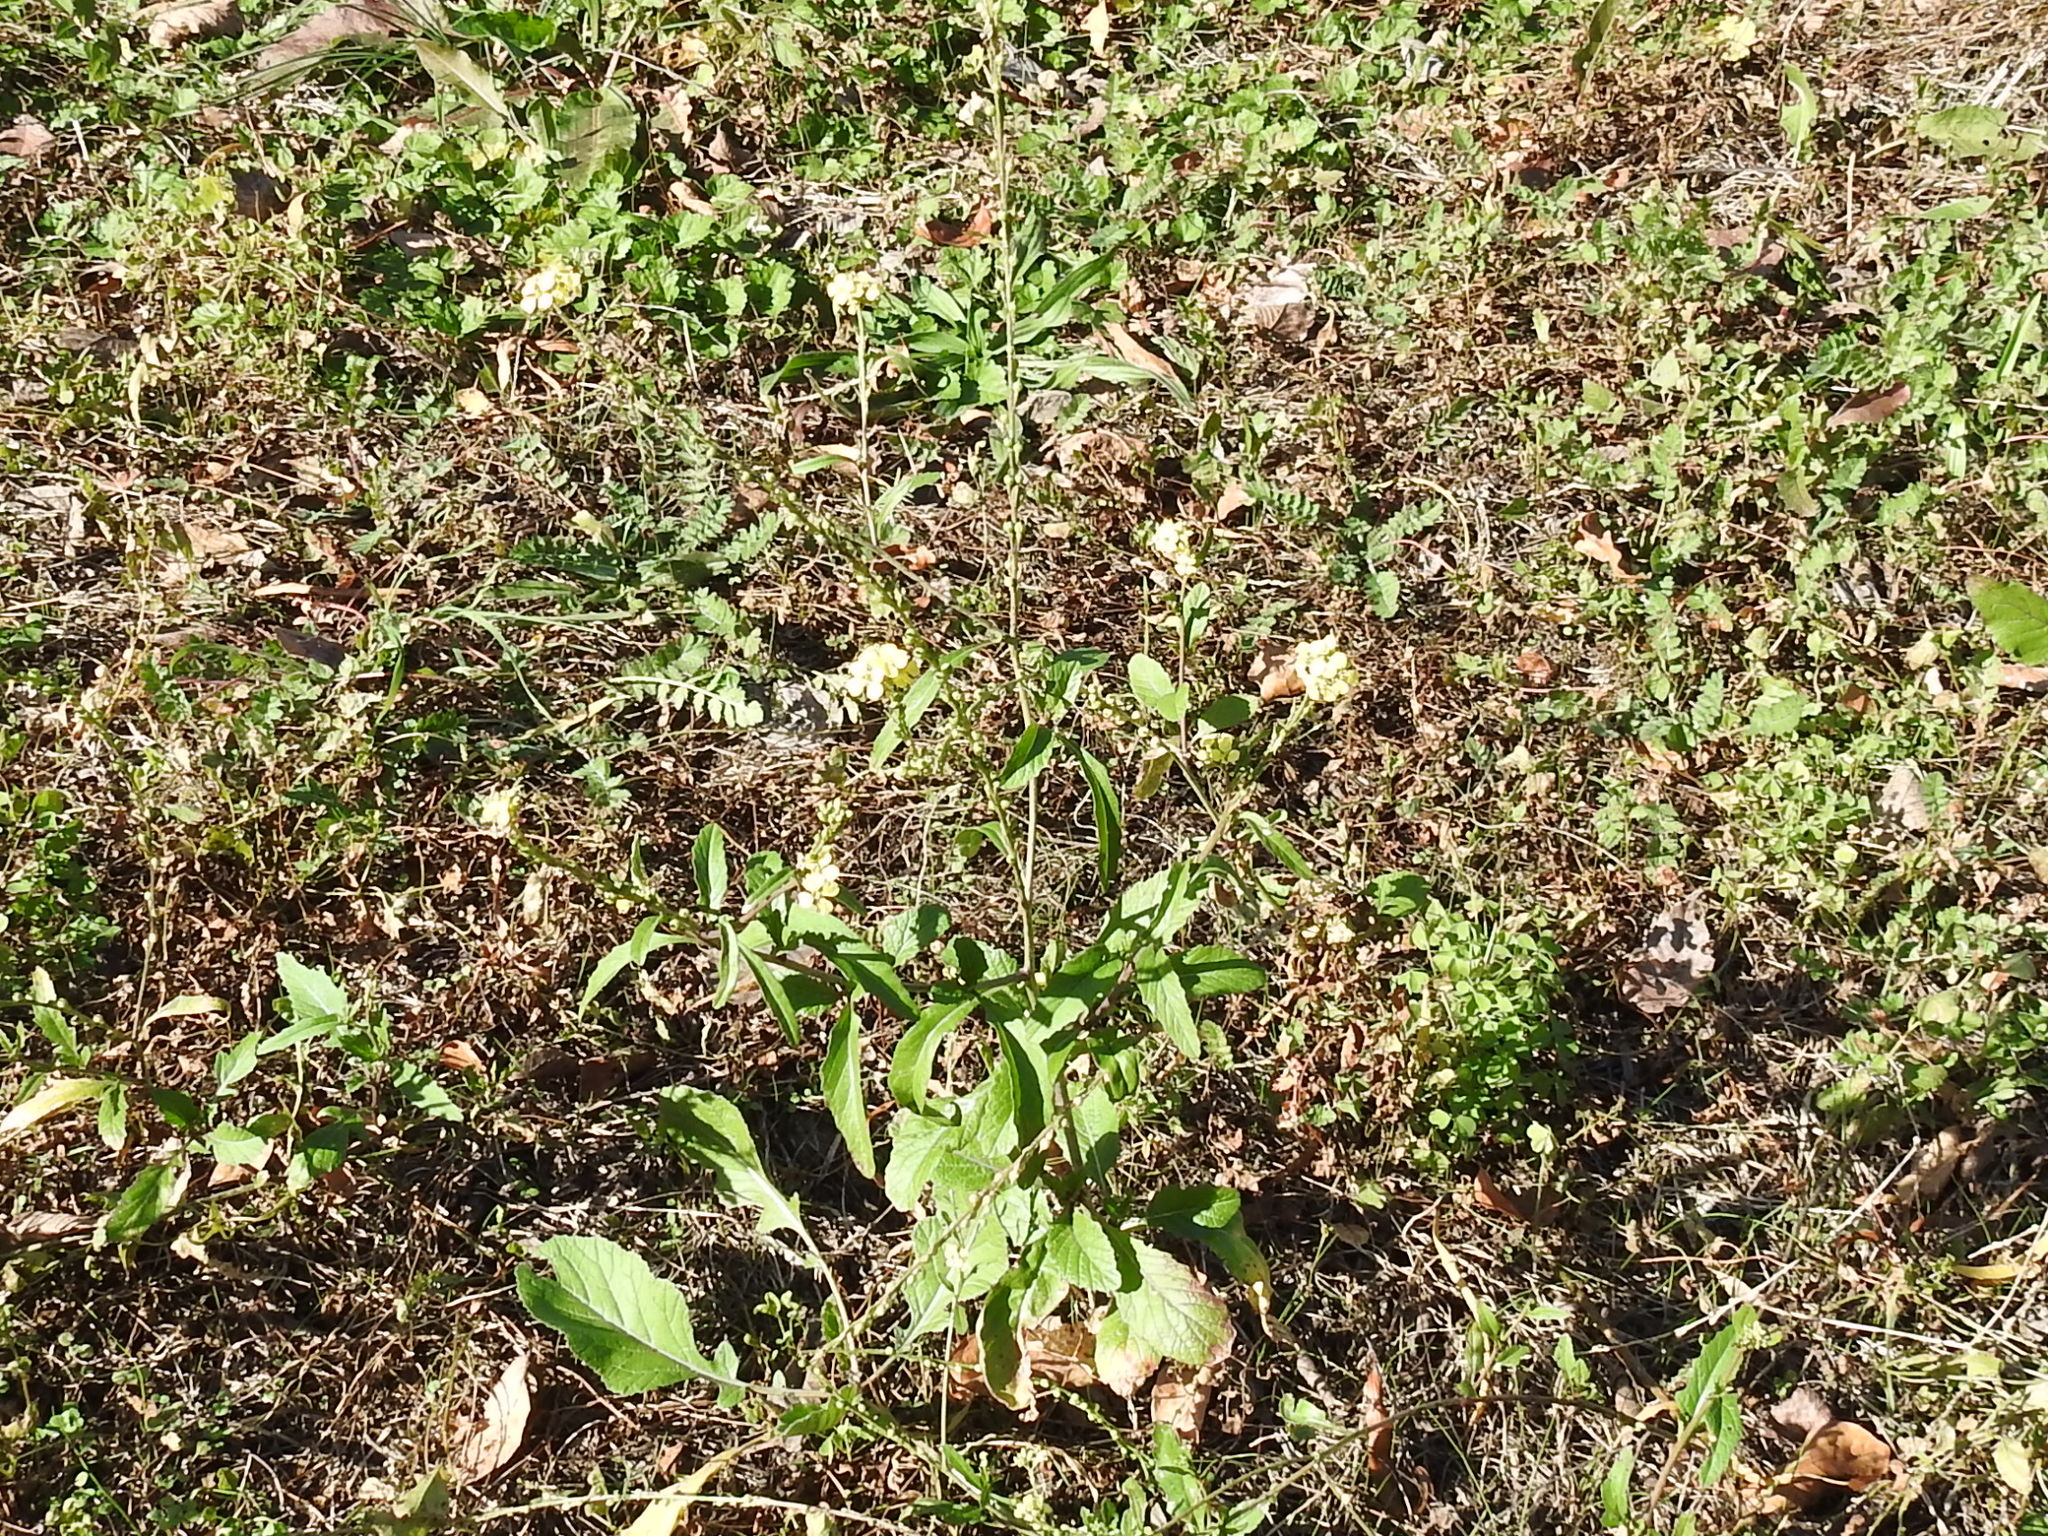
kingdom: Plantae
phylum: Tracheophyta
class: Magnoliopsida
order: Brassicales
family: Brassicaceae
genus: Rapistrum
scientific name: Rapistrum rugosum
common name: Annual bastardcabbage
